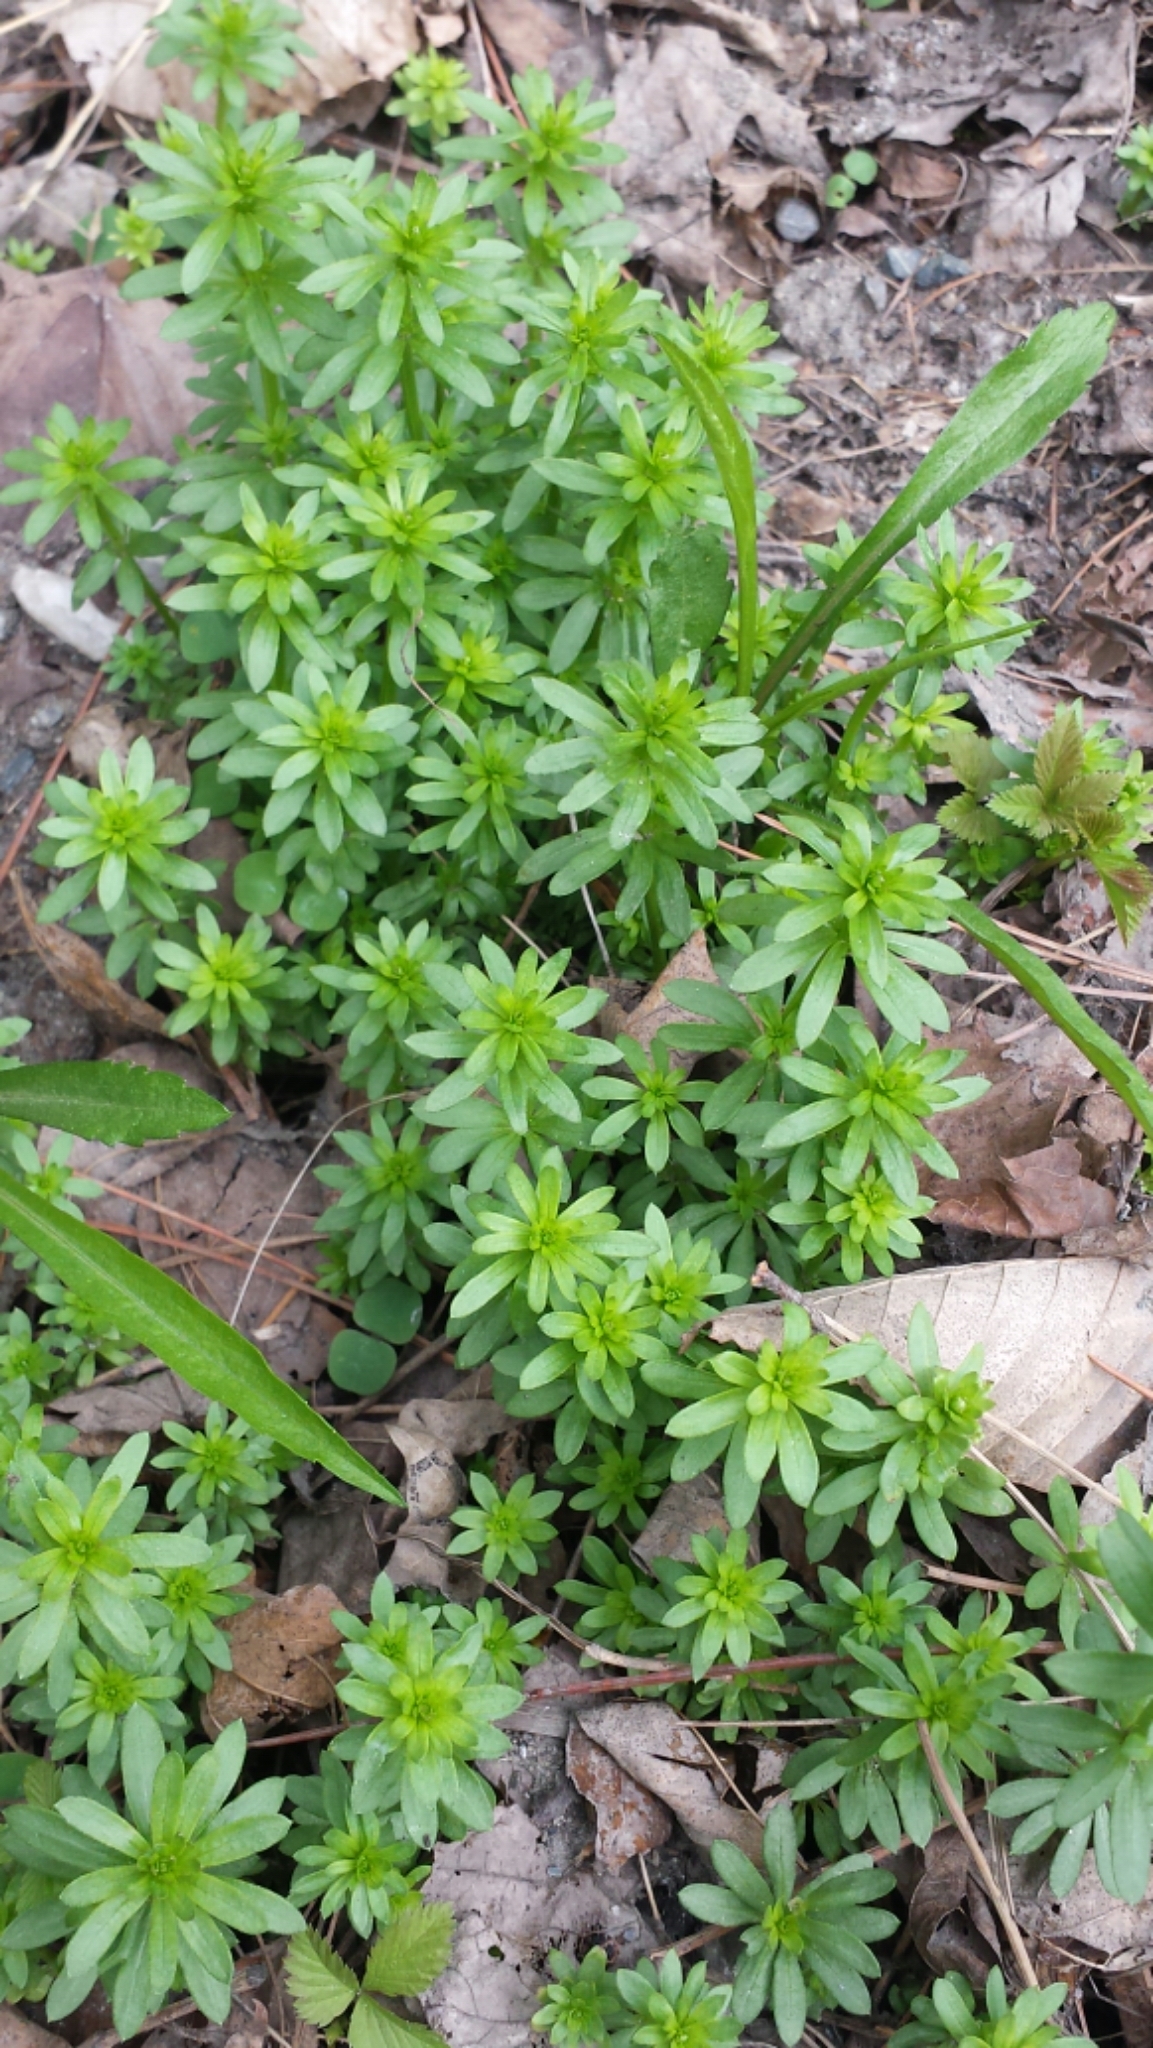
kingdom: Plantae
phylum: Tracheophyta
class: Magnoliopsida
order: Gentianales
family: Rubiaceae
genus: Galium
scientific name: Galium mollugo
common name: Hedge bedstraw
